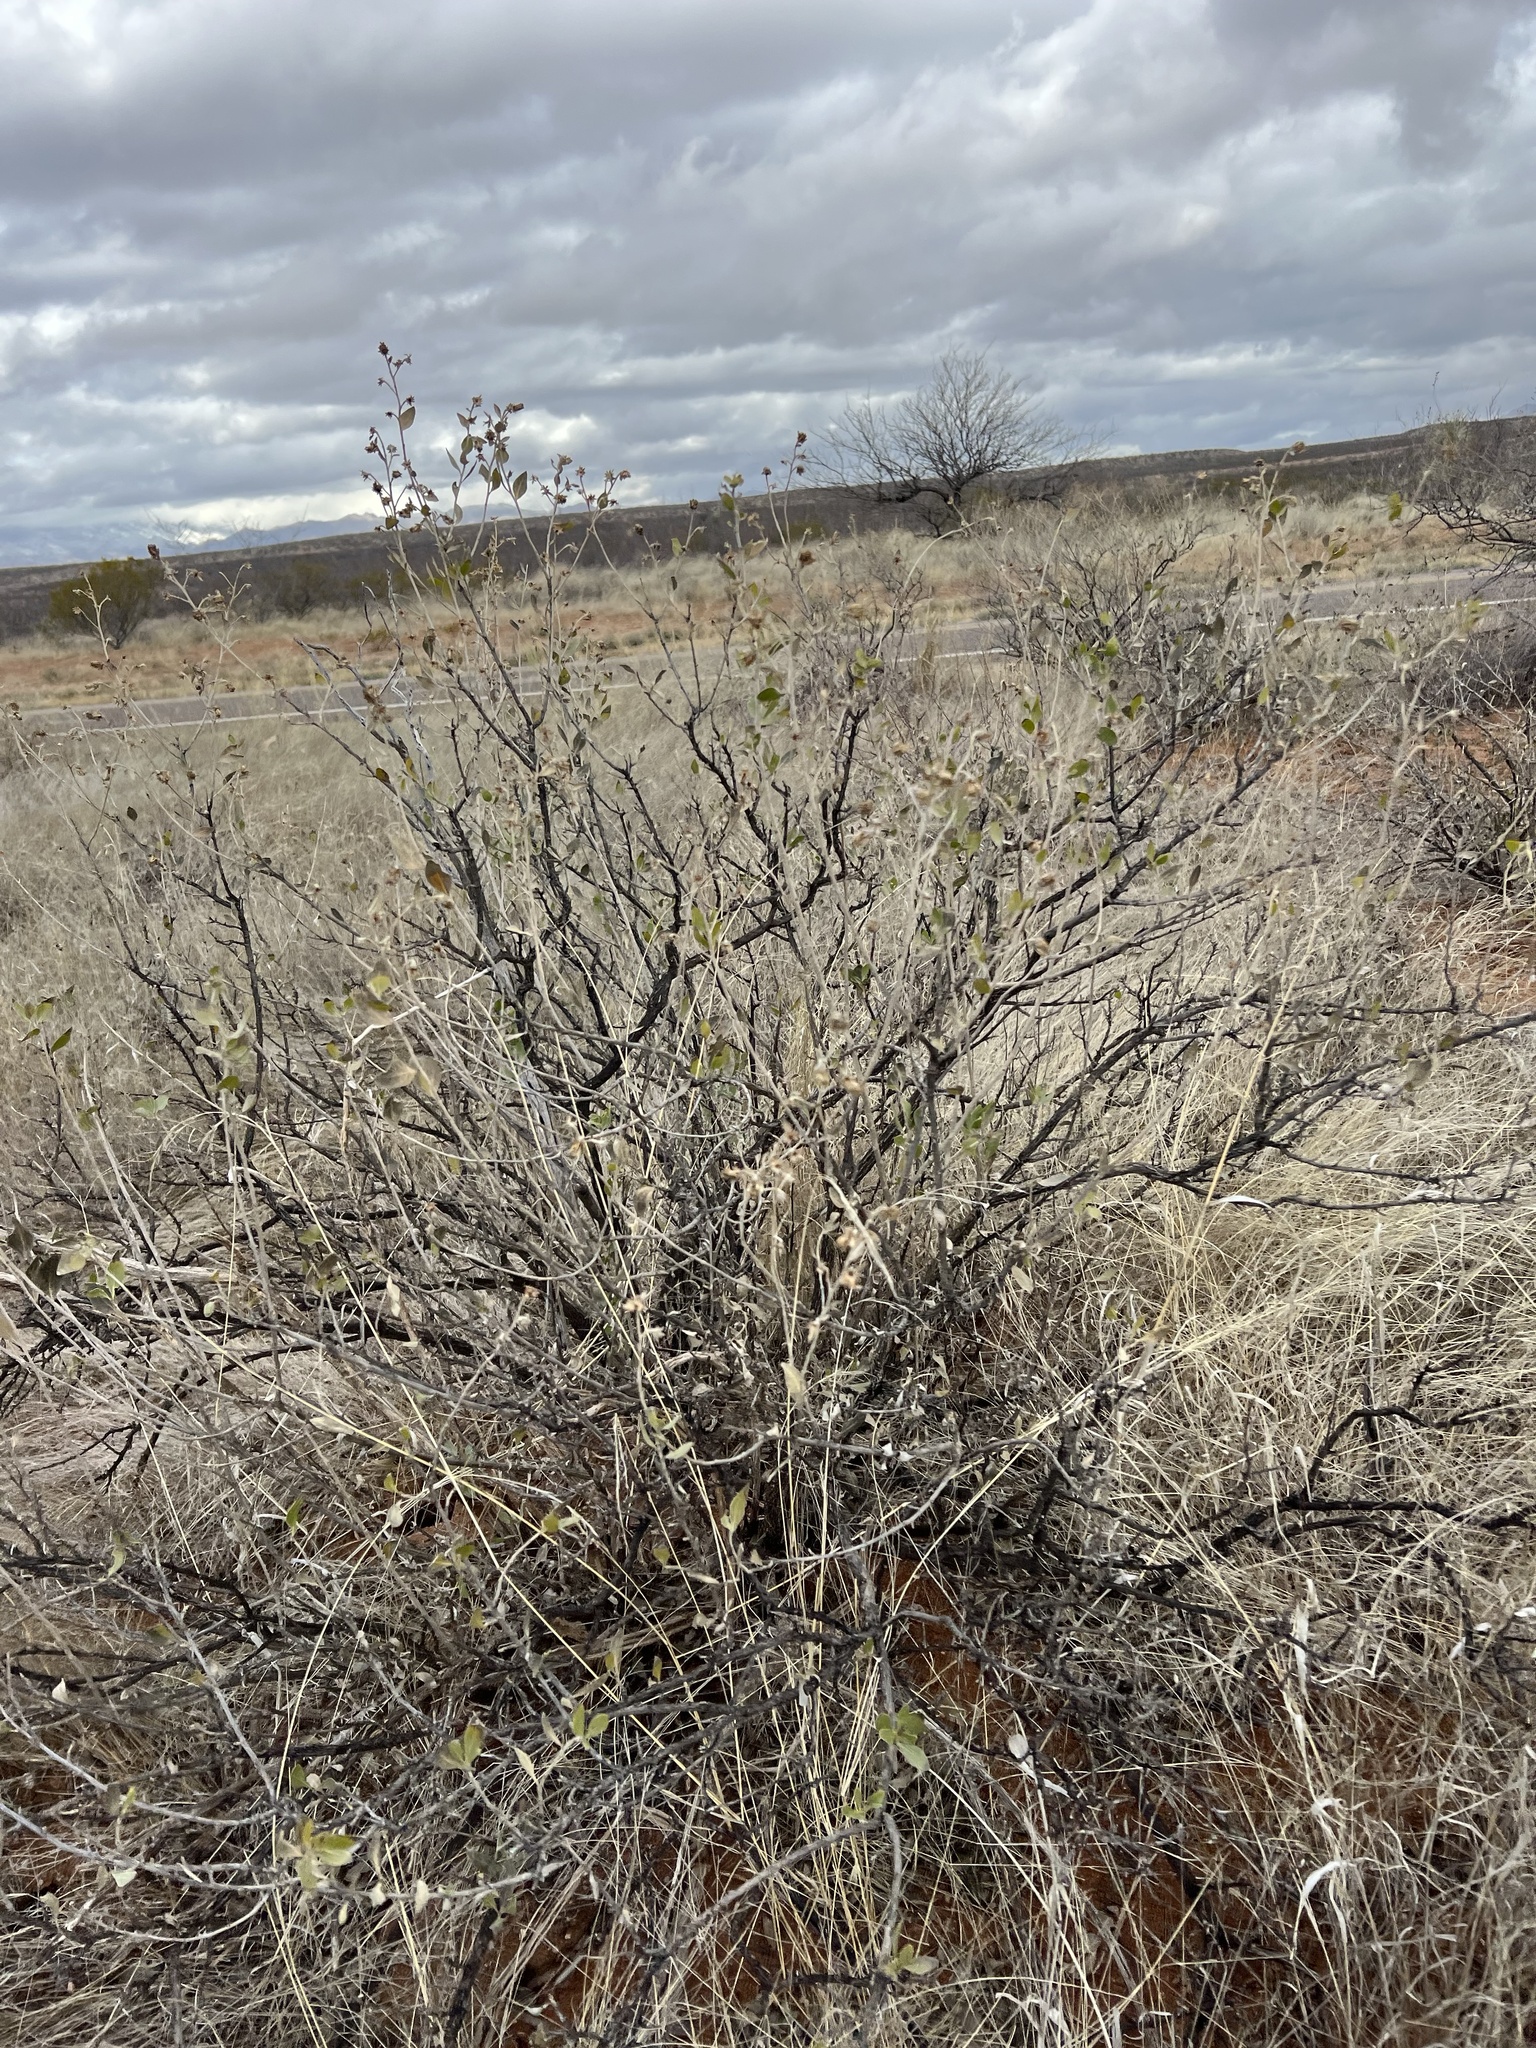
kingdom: Plantae
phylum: Tracheophyta
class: Magnoliopsida
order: Asterales
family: Asteraceae
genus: Flourensia
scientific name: Flourensia cernua
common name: Varnishbush
